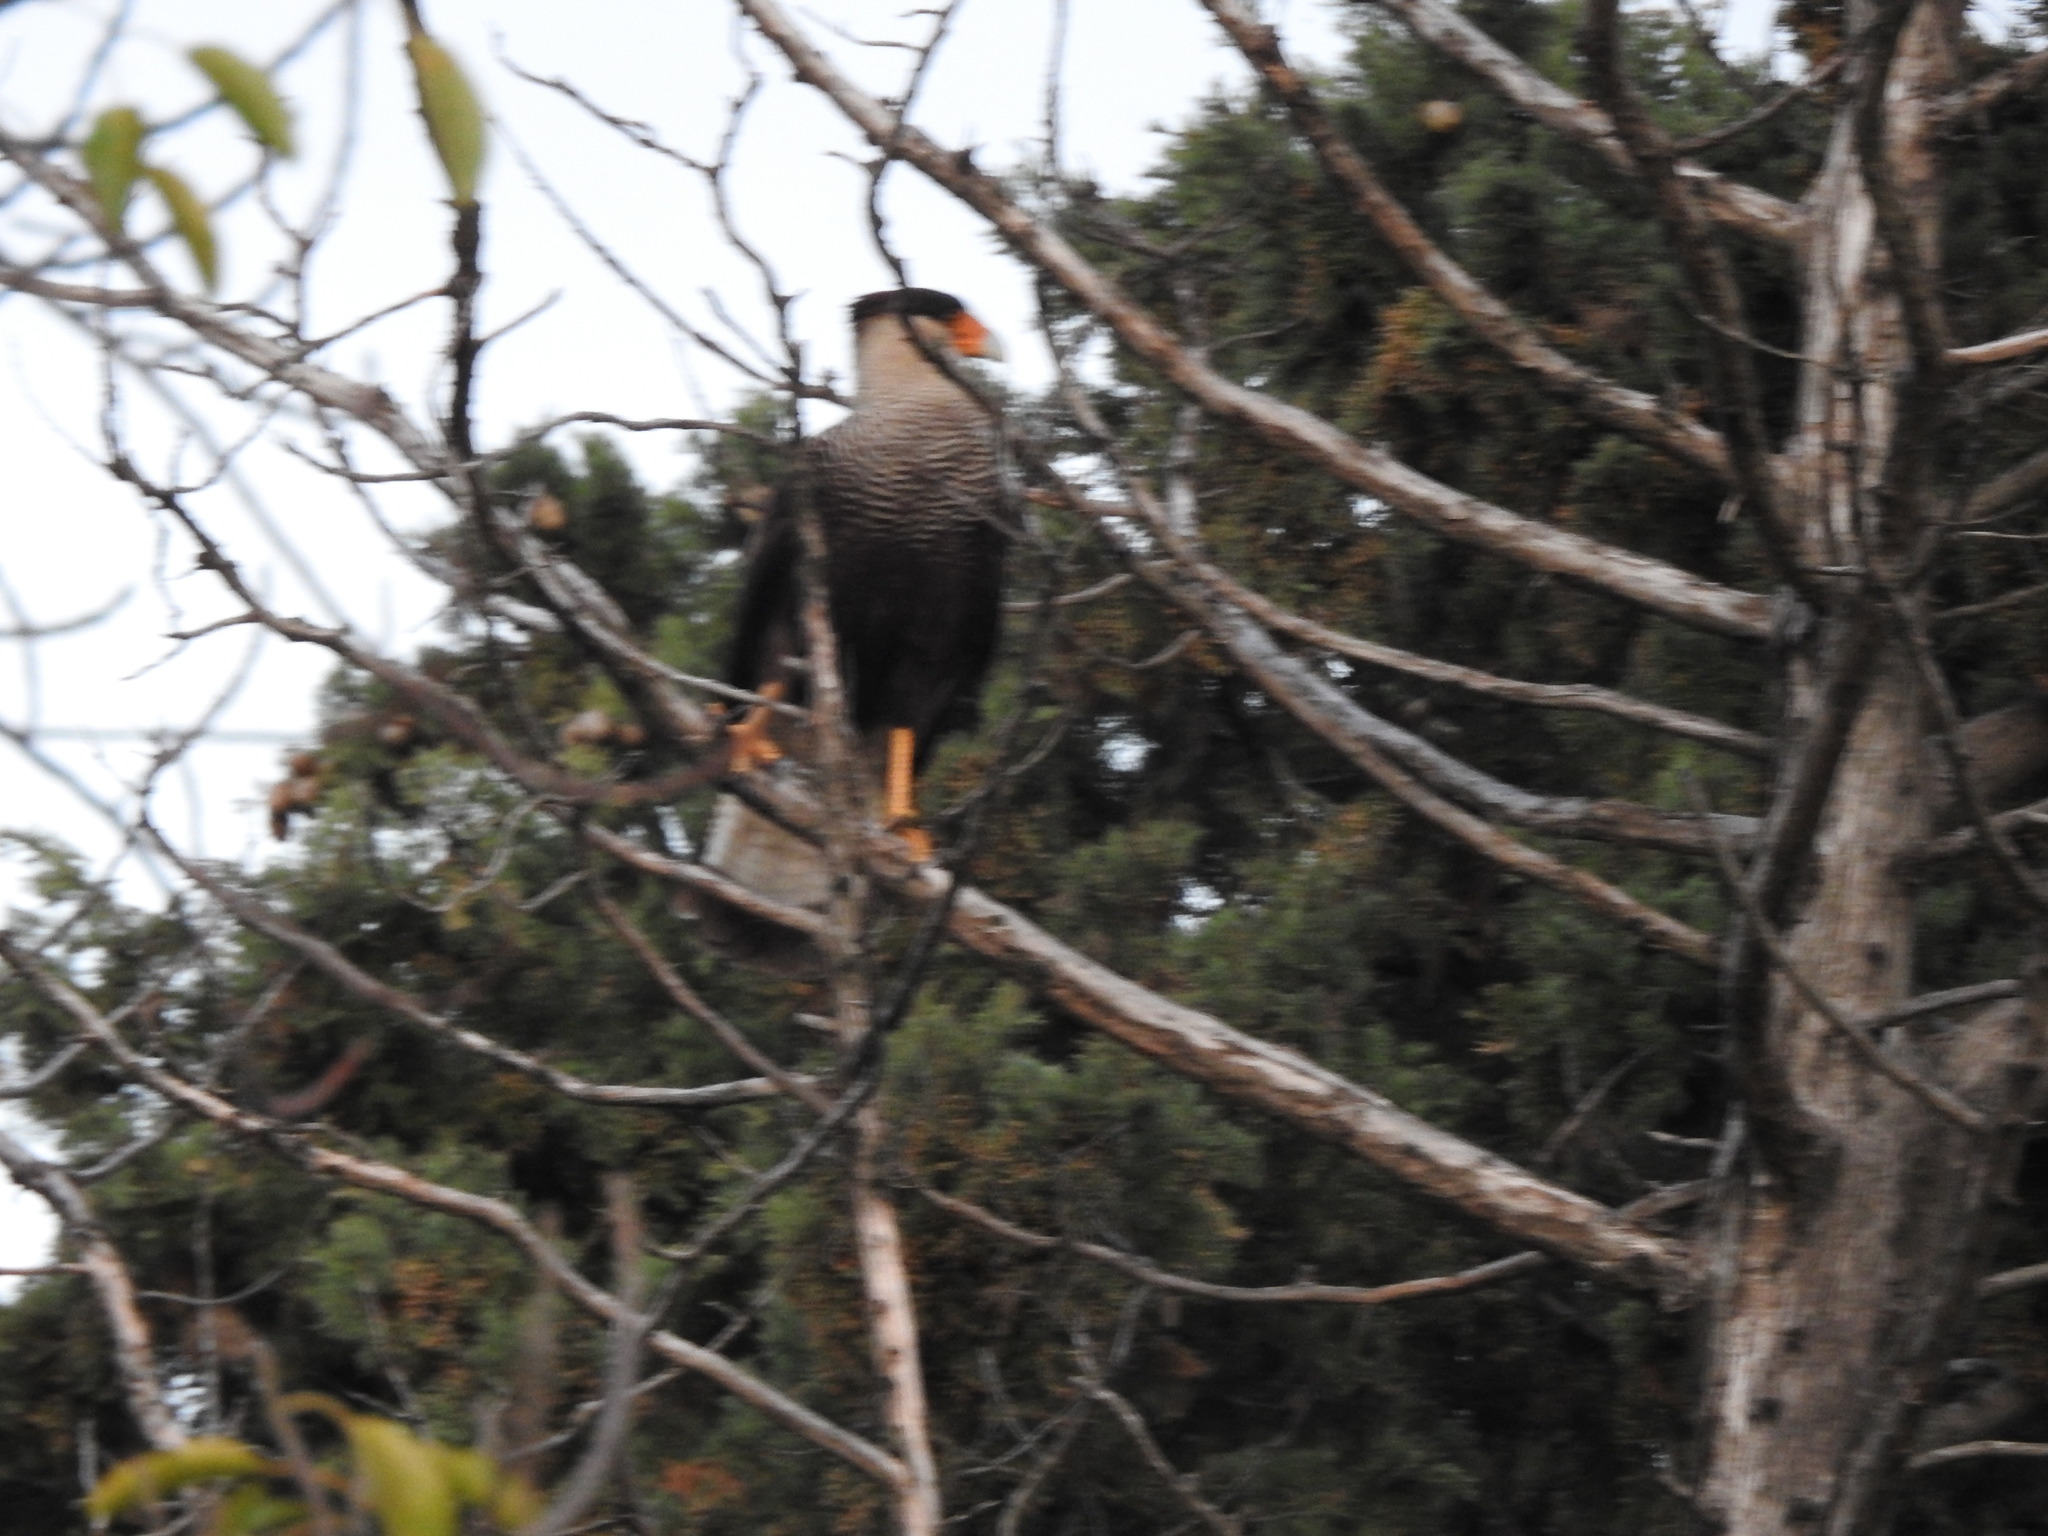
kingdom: Animalia
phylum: Chordata
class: Aves
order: Falconiformes
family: Falconidae
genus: Caracara
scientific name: Caracara plancus
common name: Southern caracara
